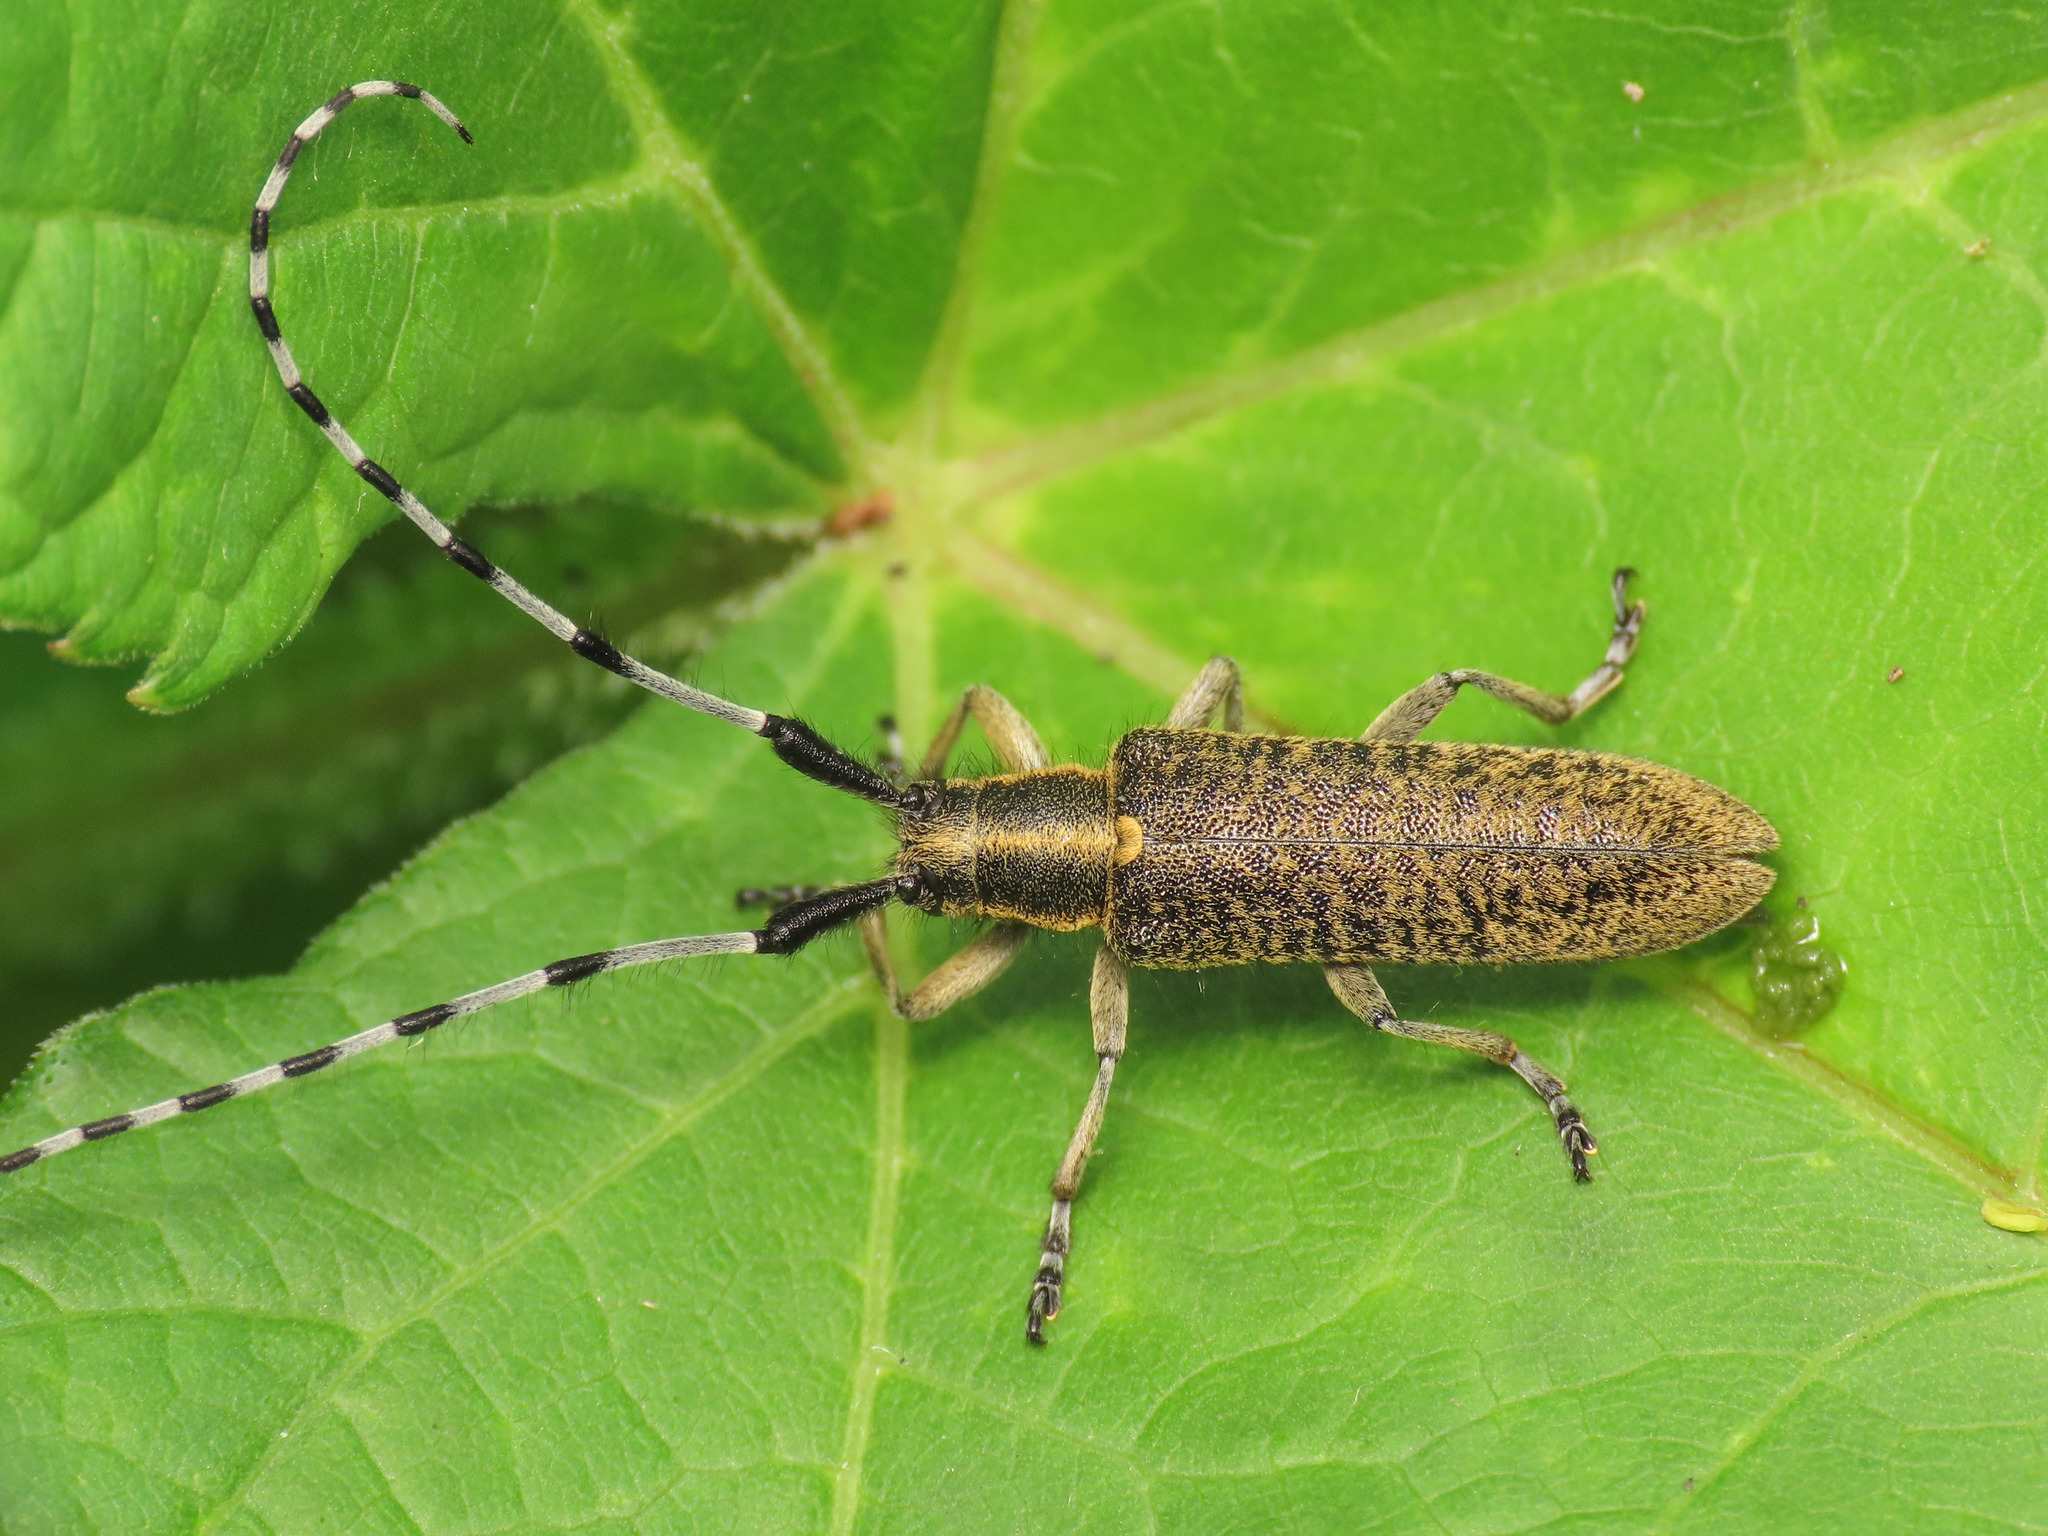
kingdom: Animalia
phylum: Arthropoda
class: Insecta
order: Coleoptera
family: Cerambycidae
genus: Agapanthia
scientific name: Agapanthia villosoviridescens
